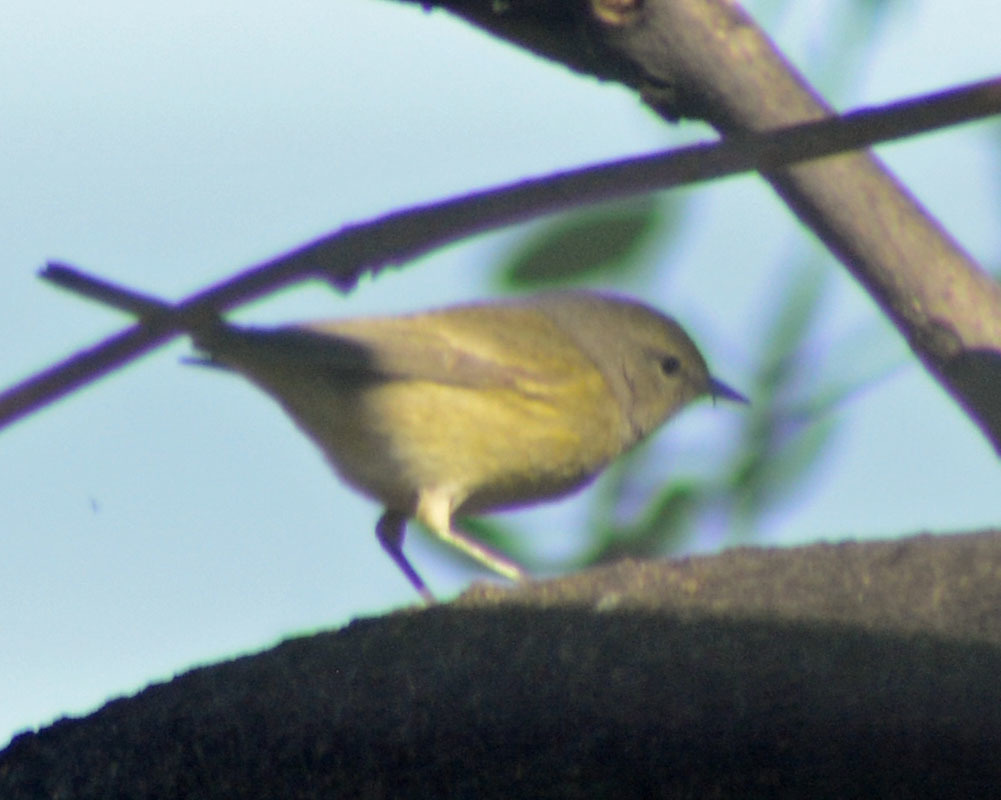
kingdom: Animalia
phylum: Chordata
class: Aves
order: Passeriformes
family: Parulidae
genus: Leiothlypis
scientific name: Leiothlypis celata
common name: Orange-crowned warbler
